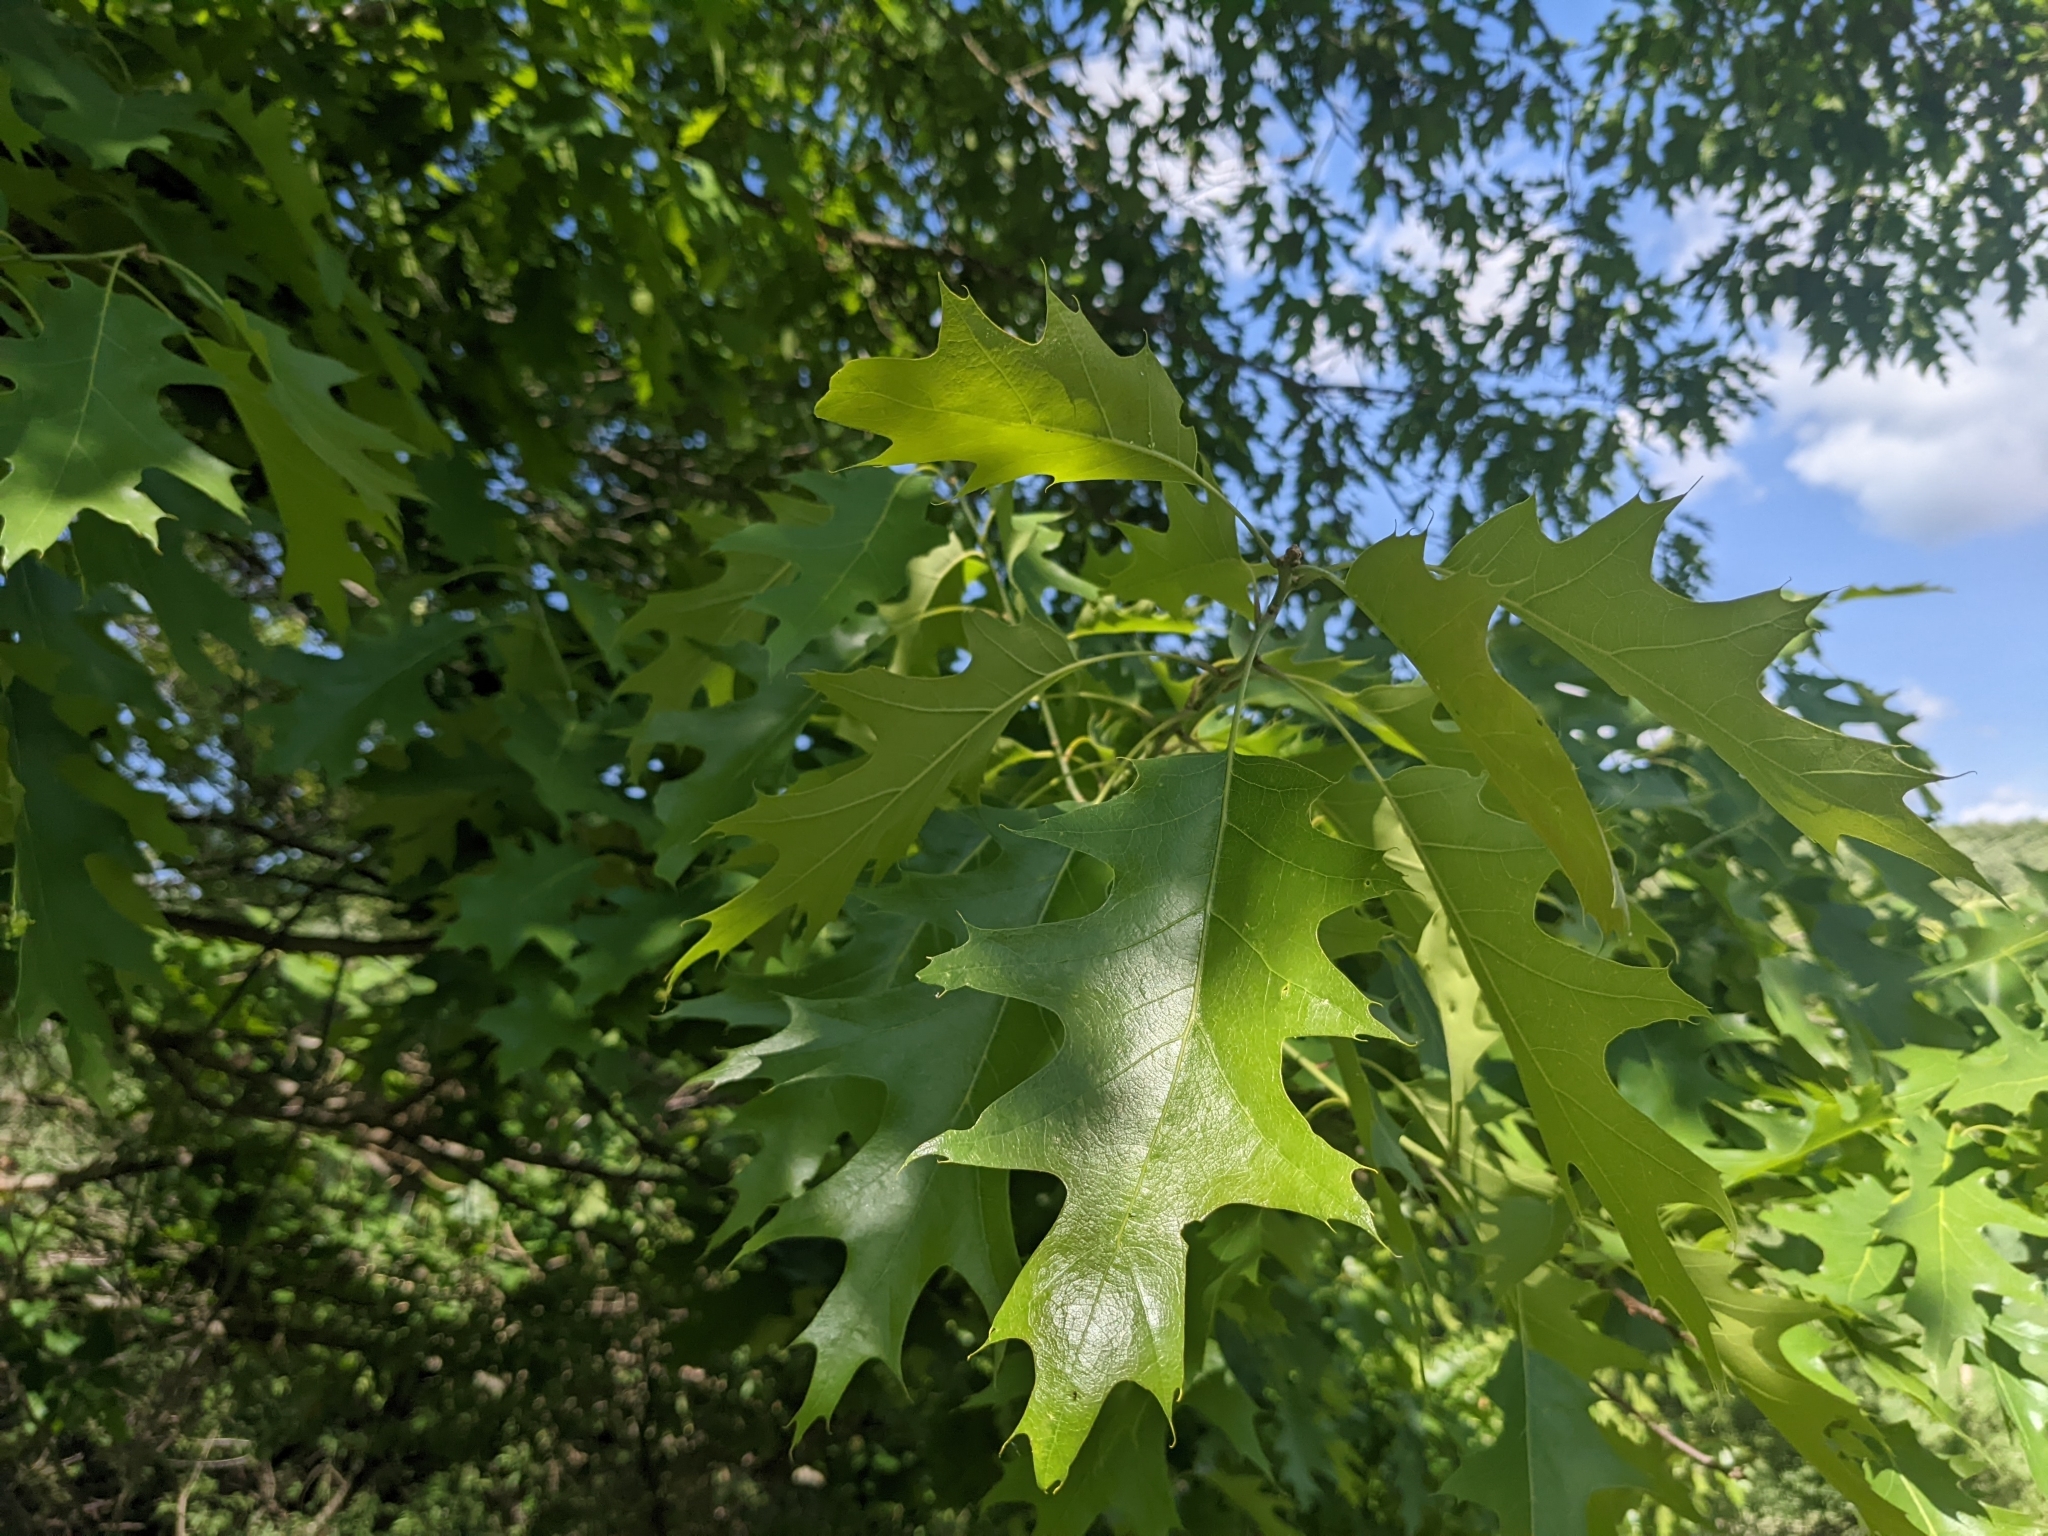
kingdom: Plantae
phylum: Tracheophyta
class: Magnoliopsida
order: Fagales
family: Fagaceae
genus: Quercus
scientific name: Quercus rubra
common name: Red oak
